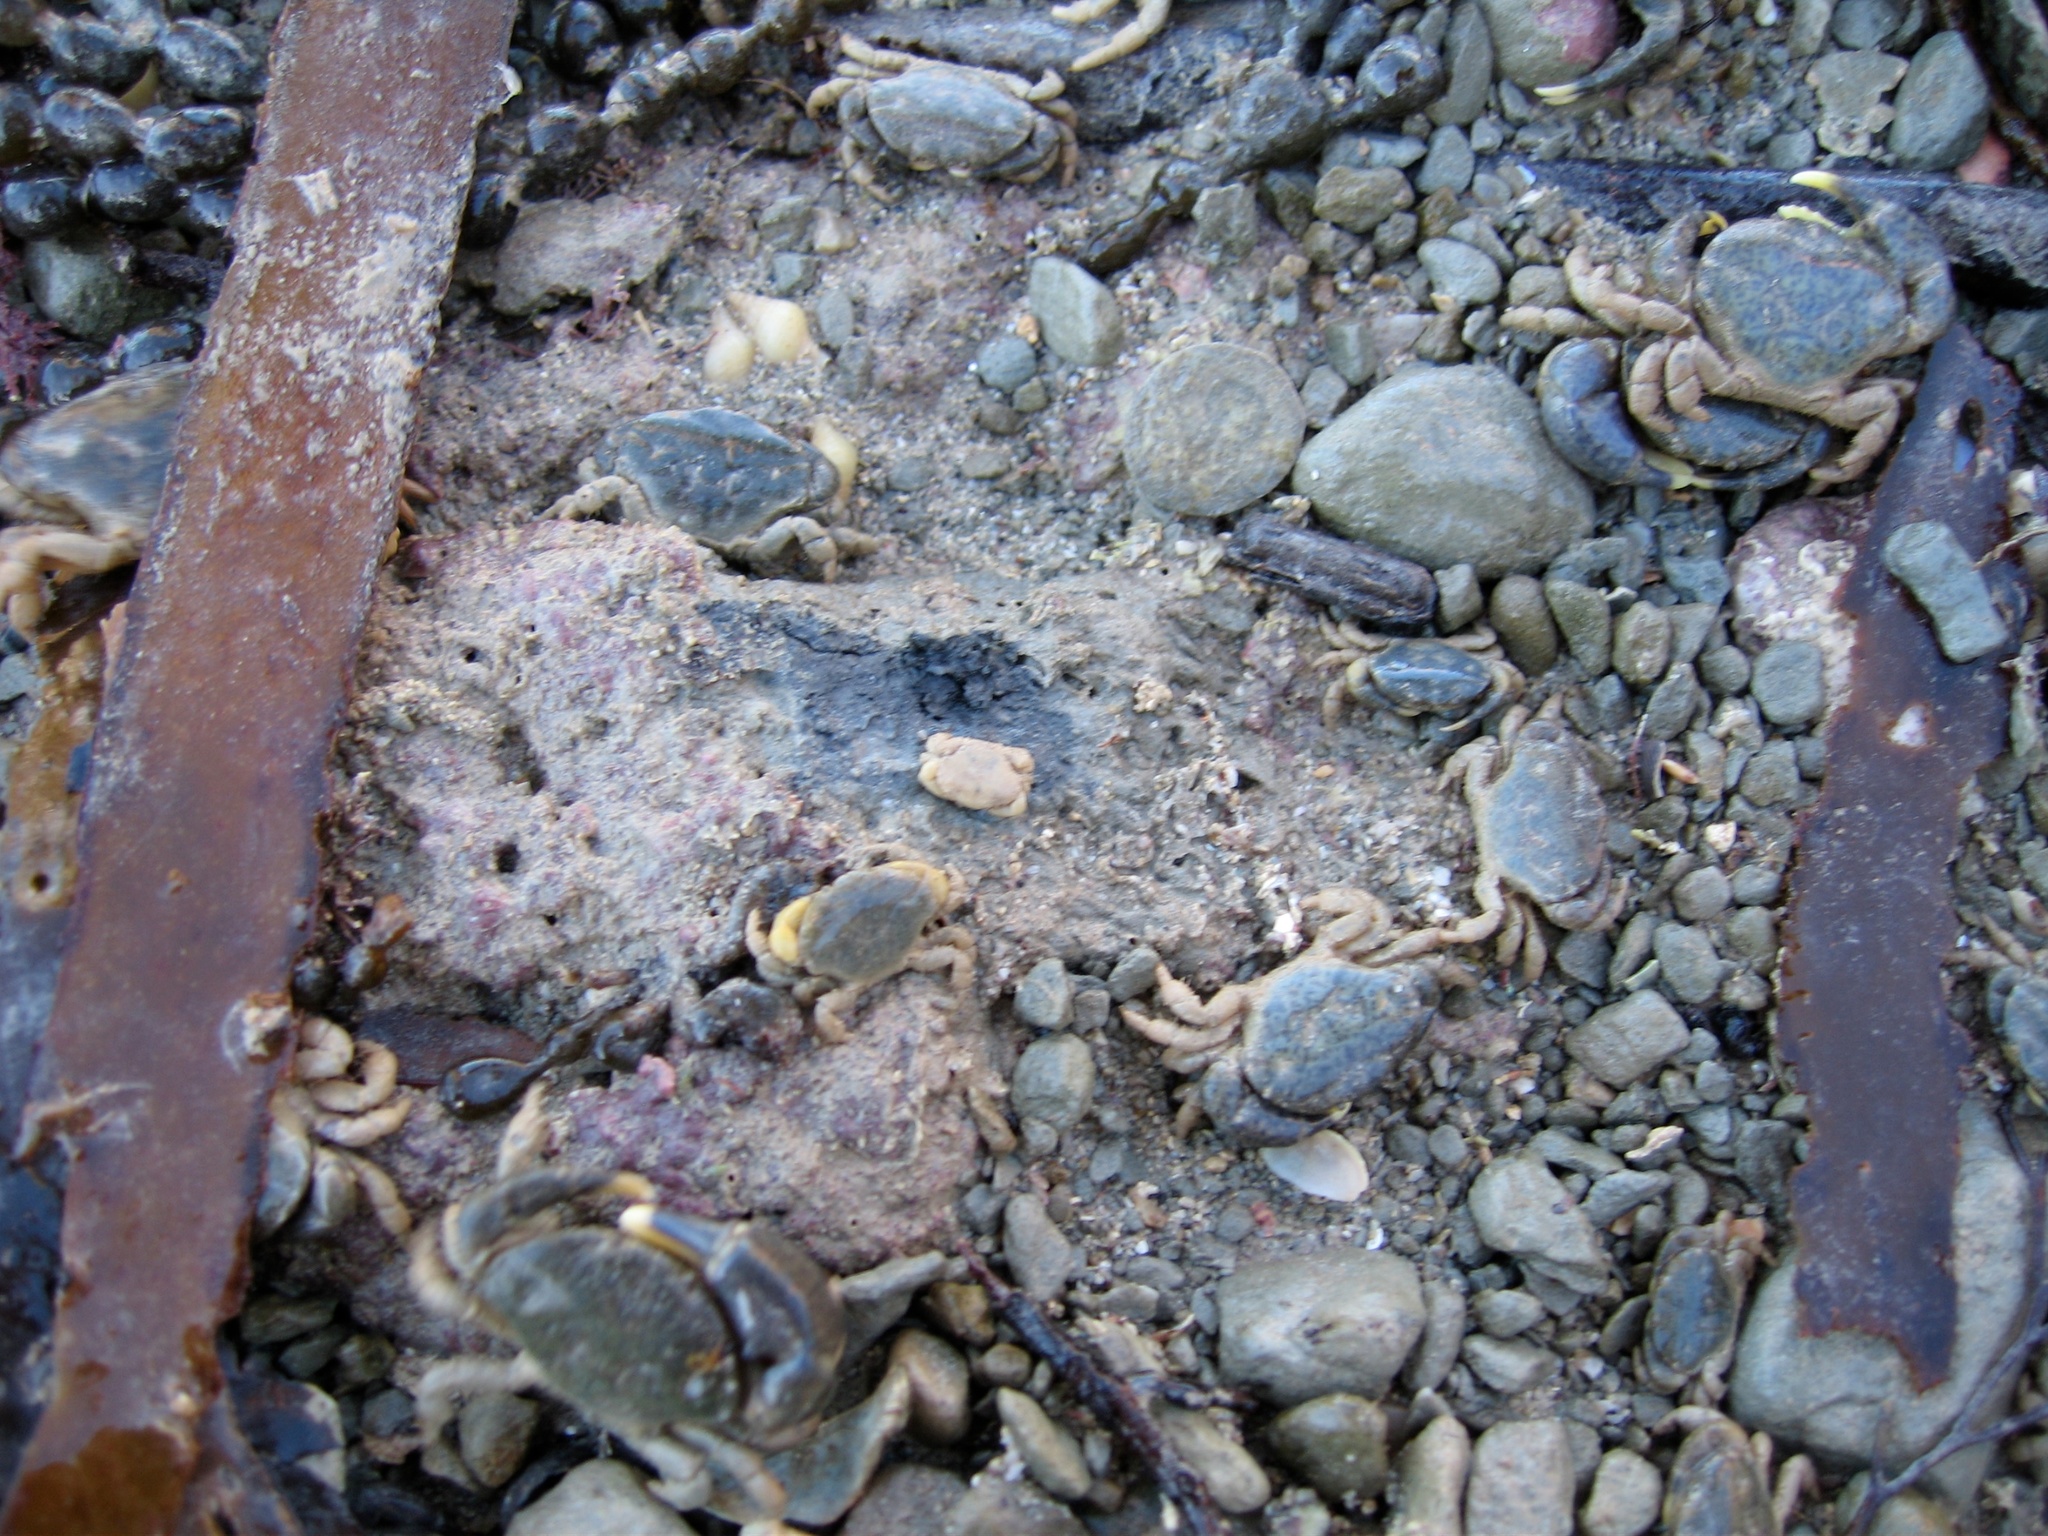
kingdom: Animalia
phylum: Arthropoda
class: Malacostraca
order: Decapoda
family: Heteroziidae
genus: Heterozius
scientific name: Heterozius rotundifrons
